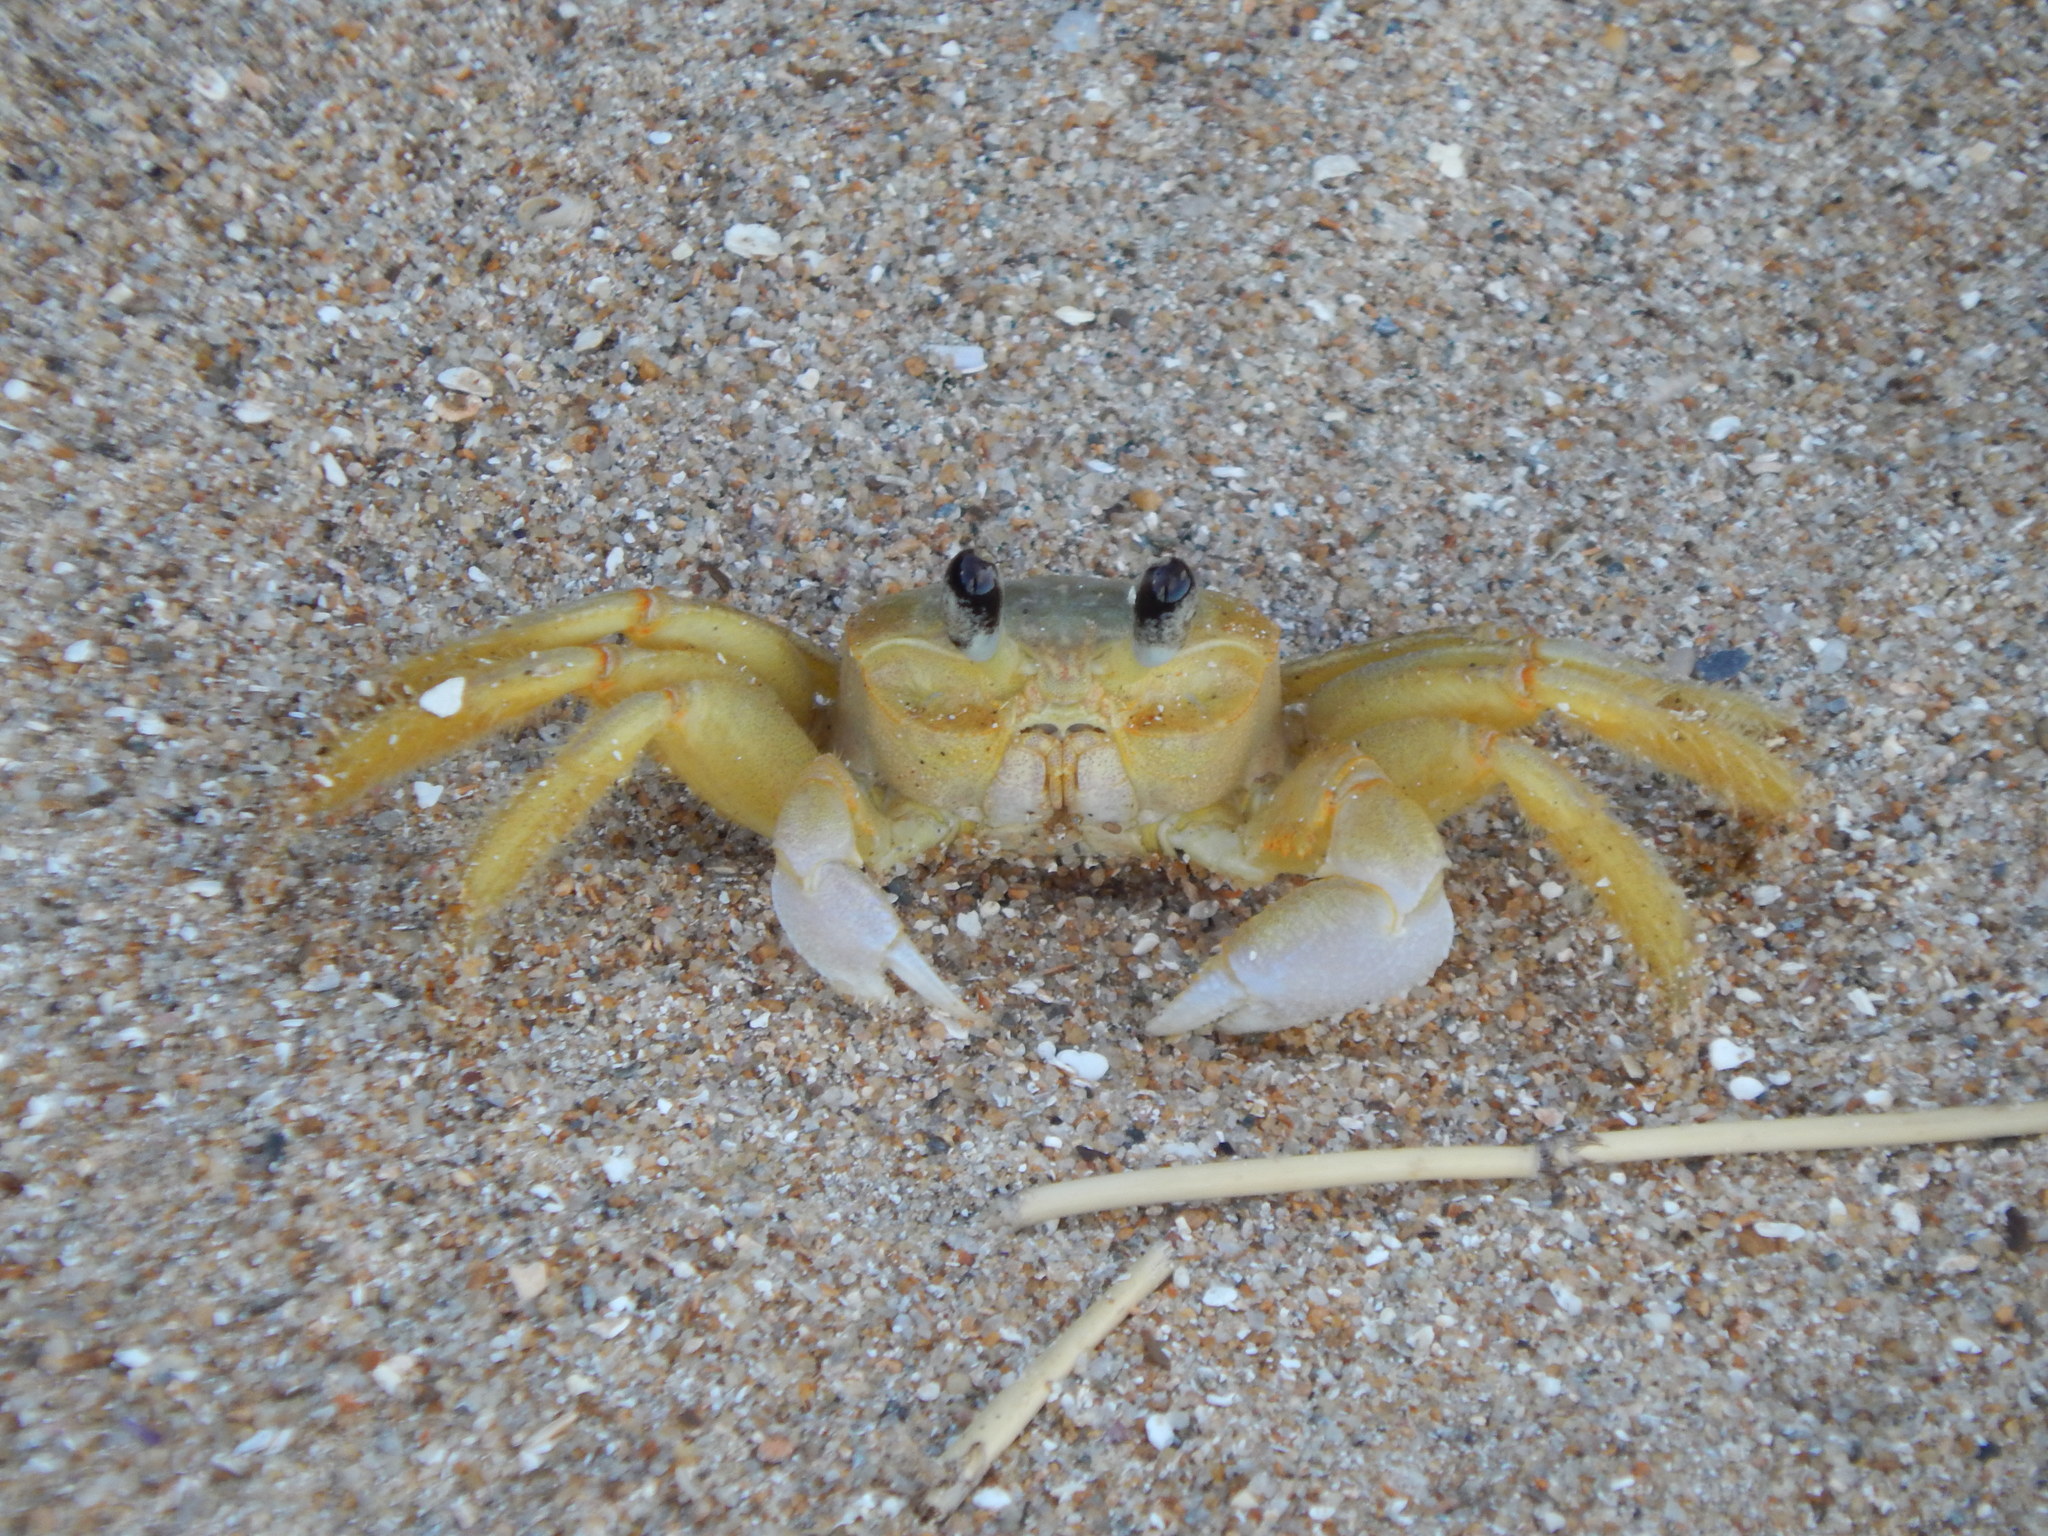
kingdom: Animalia
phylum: Arthropoda
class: Malacostraca
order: Decapoda
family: Ocypodidae
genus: Ocypode
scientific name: Ocypode quadrata
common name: Ghost crab
